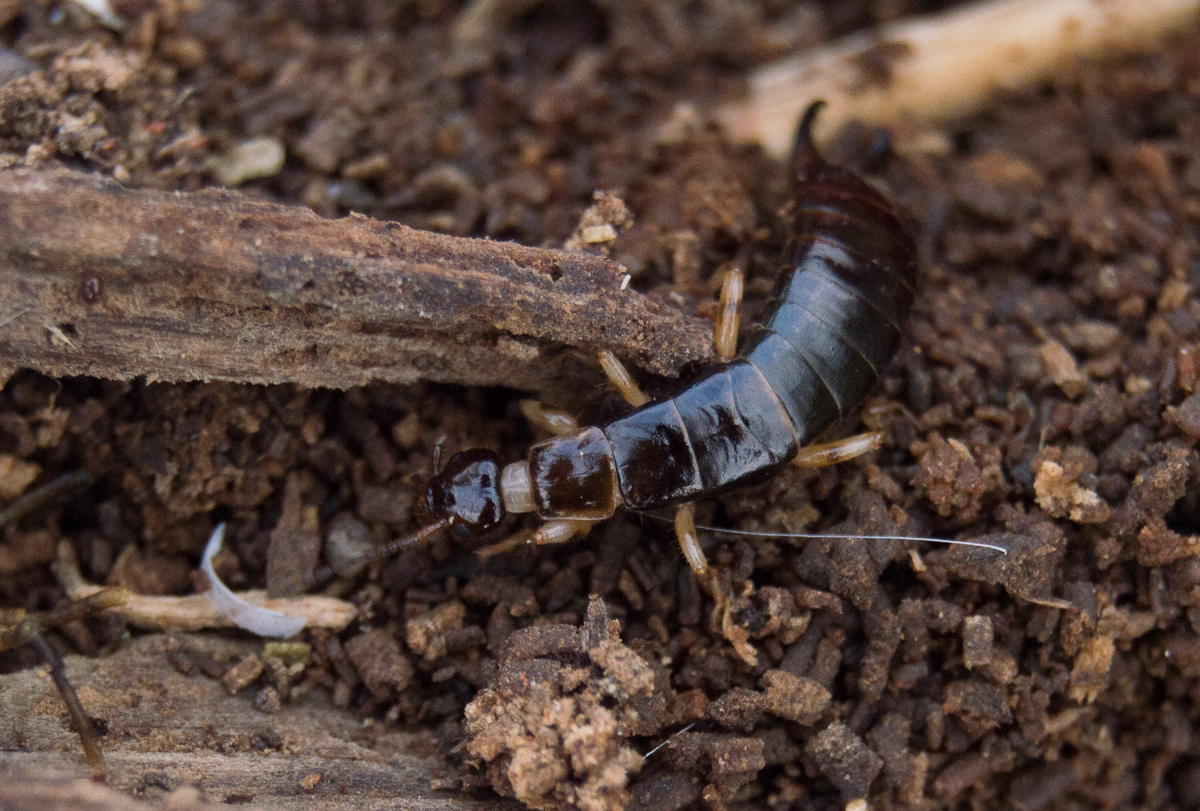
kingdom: Animalia
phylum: Arthropoda
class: Insecta
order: Dermaptera
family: Anisolabididae
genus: Euborellia
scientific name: Euborellia annulipes
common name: Ringlegged earwig
